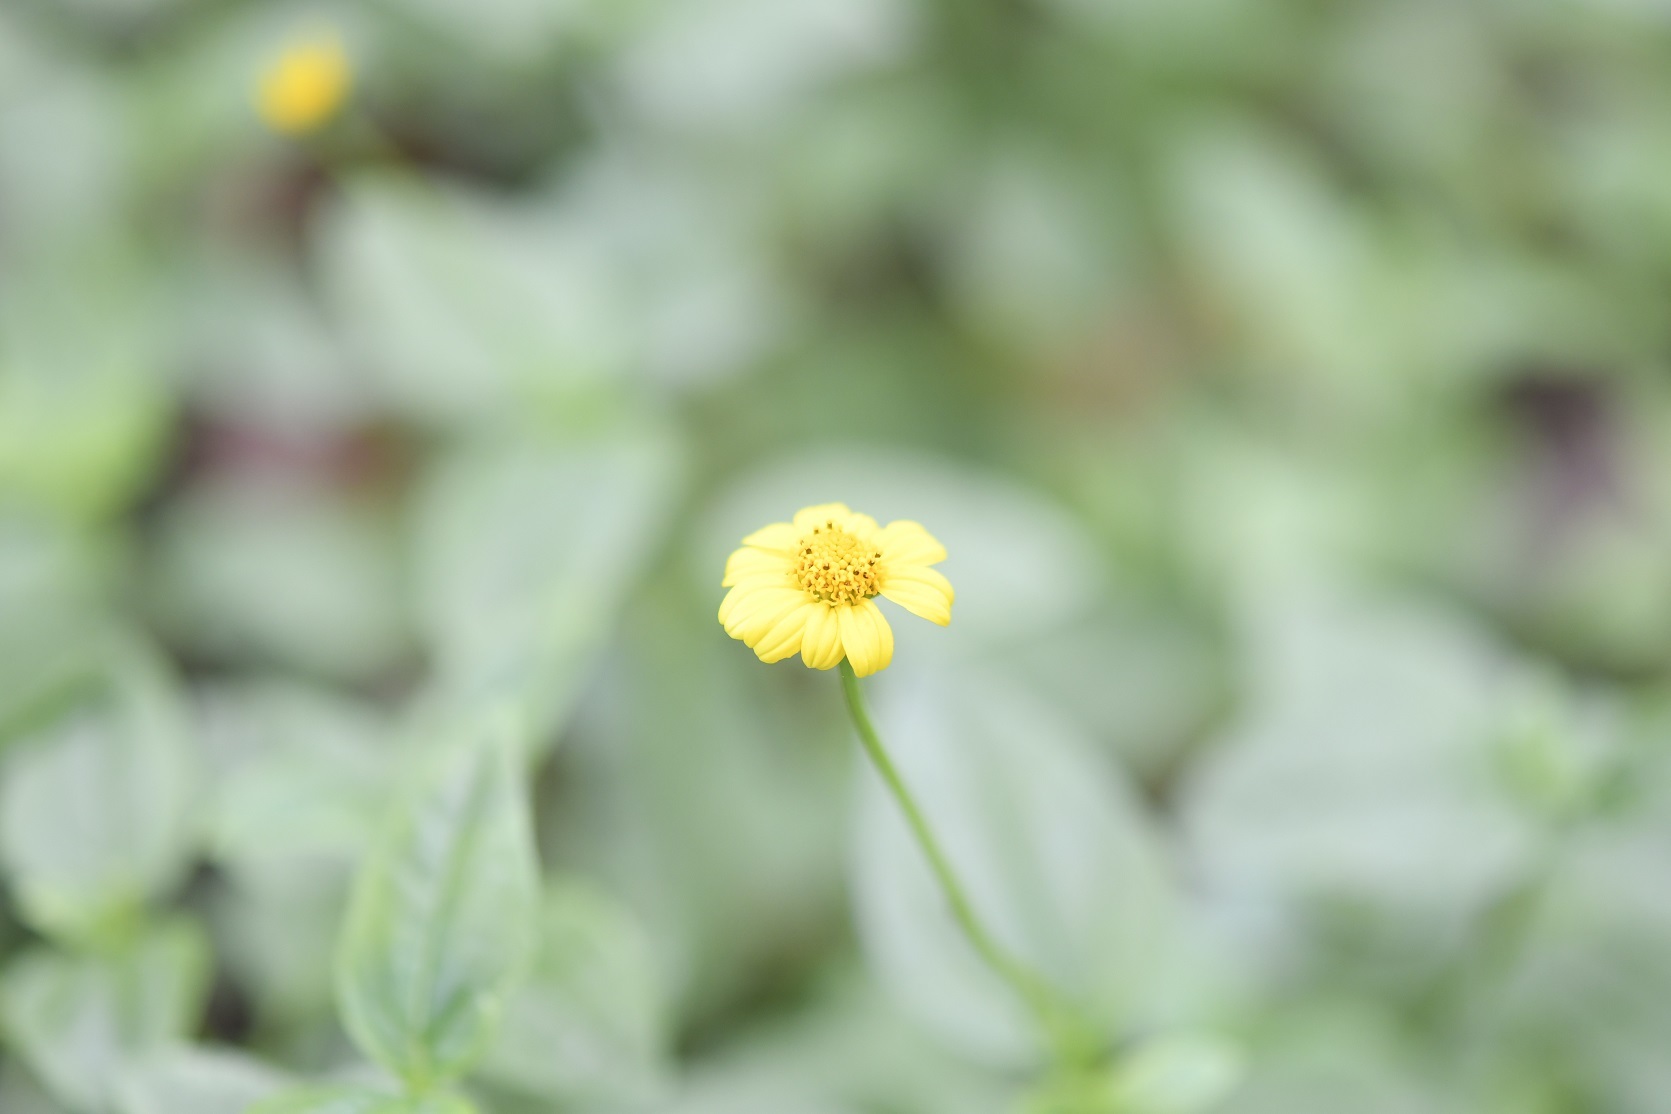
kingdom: Plantae
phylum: Tracheophyta
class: Magnoliopsida
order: Asterales
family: Asteraceae
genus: Heliopsis
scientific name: Heliopsis buphthalmoides
